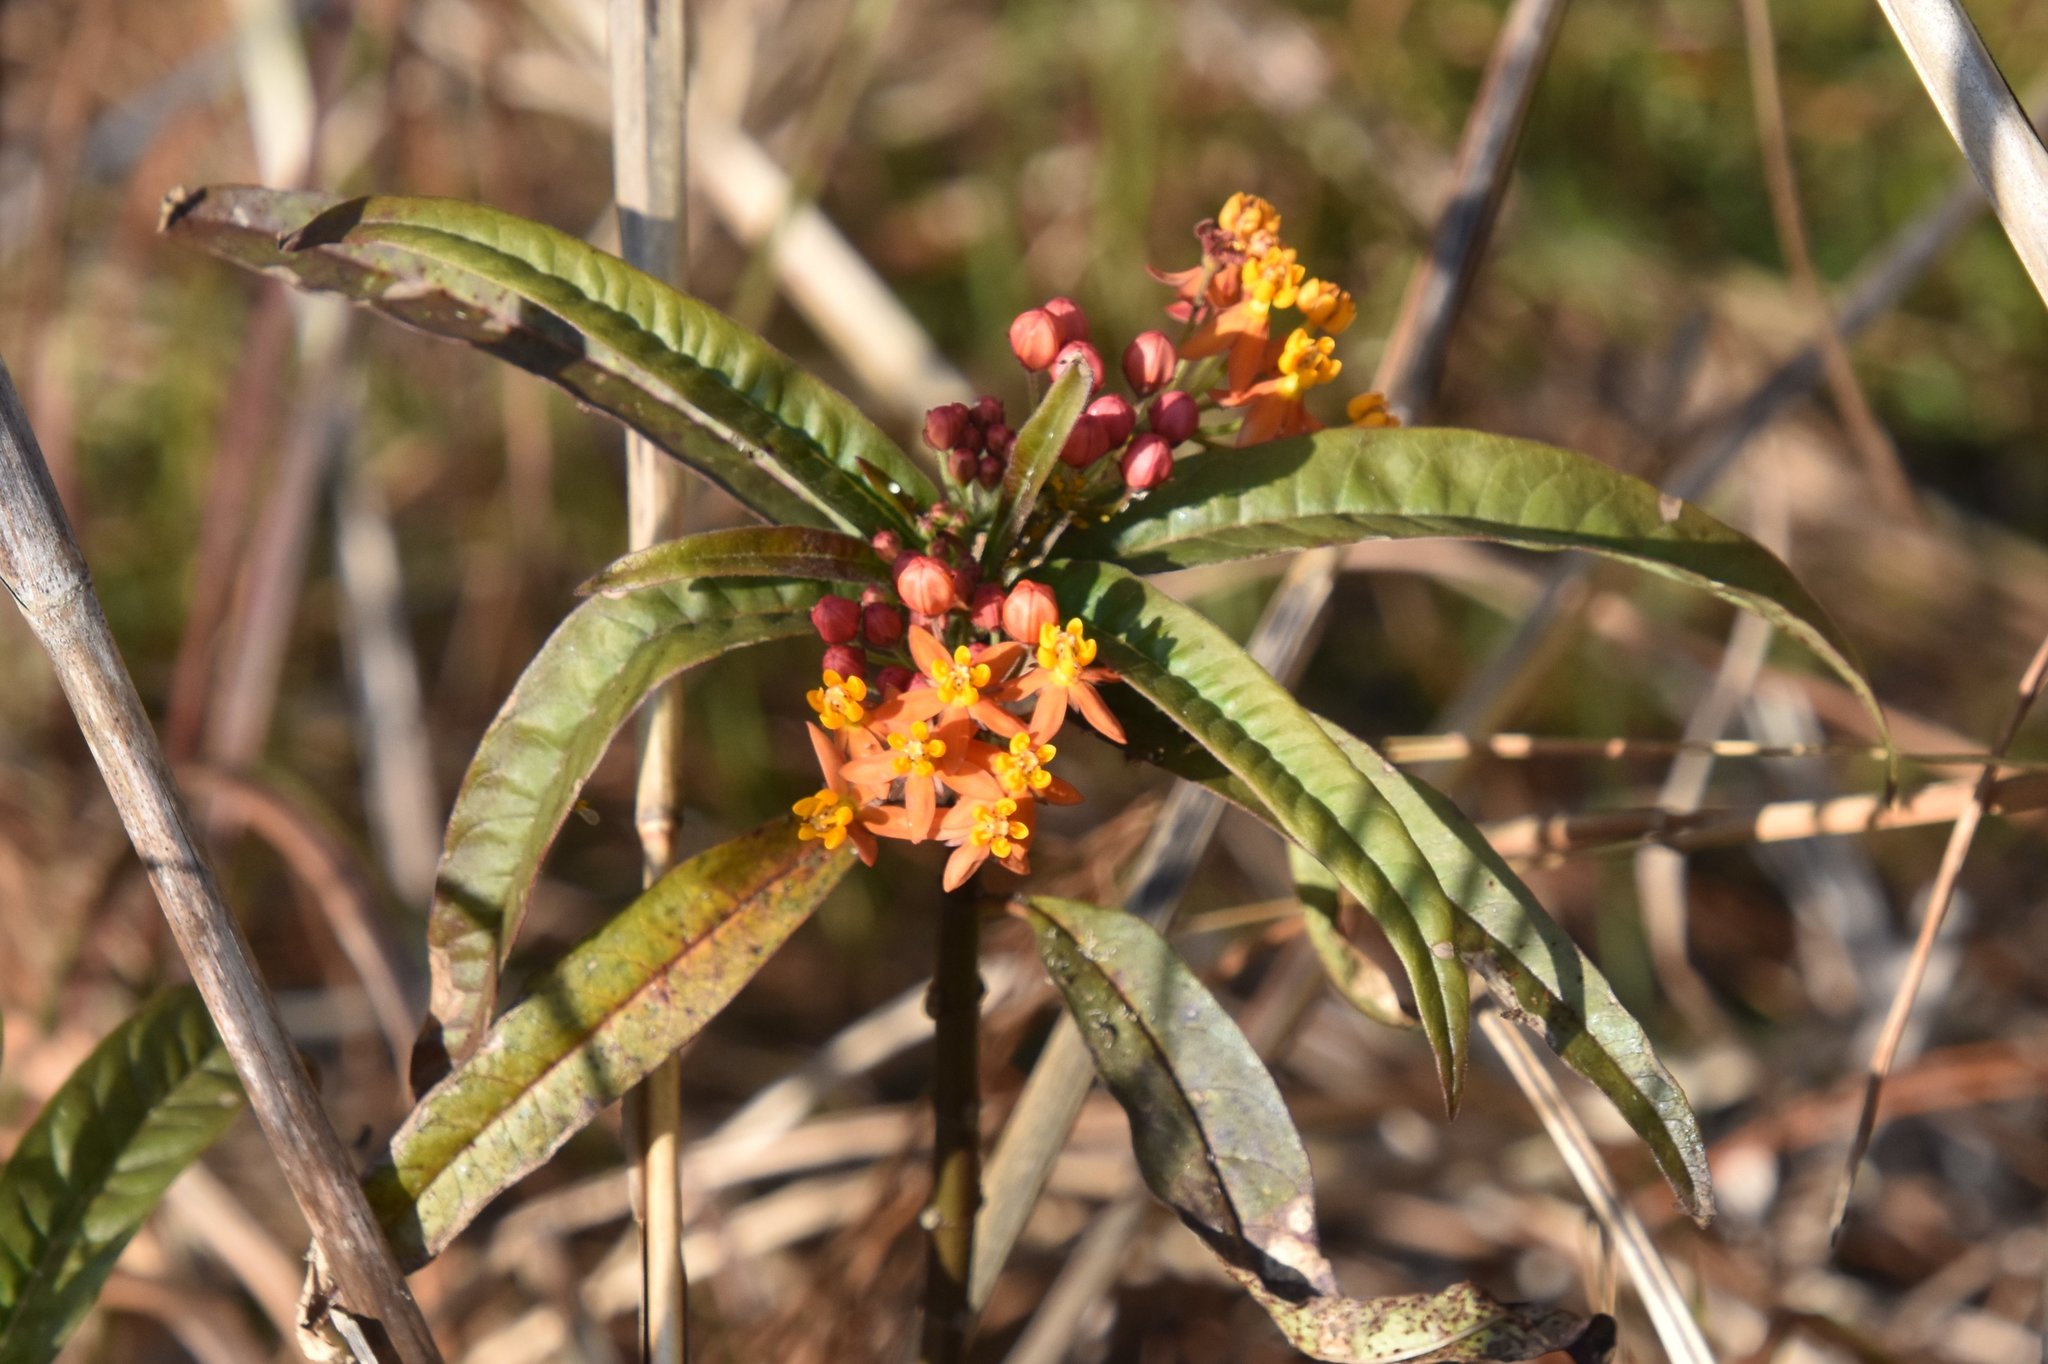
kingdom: Plantae
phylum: Tracheophyta
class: Magnoliopsida
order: Gentianales
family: Apocynaceae
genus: Asclepias
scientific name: Asclepias curassavica
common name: Bloodflower
